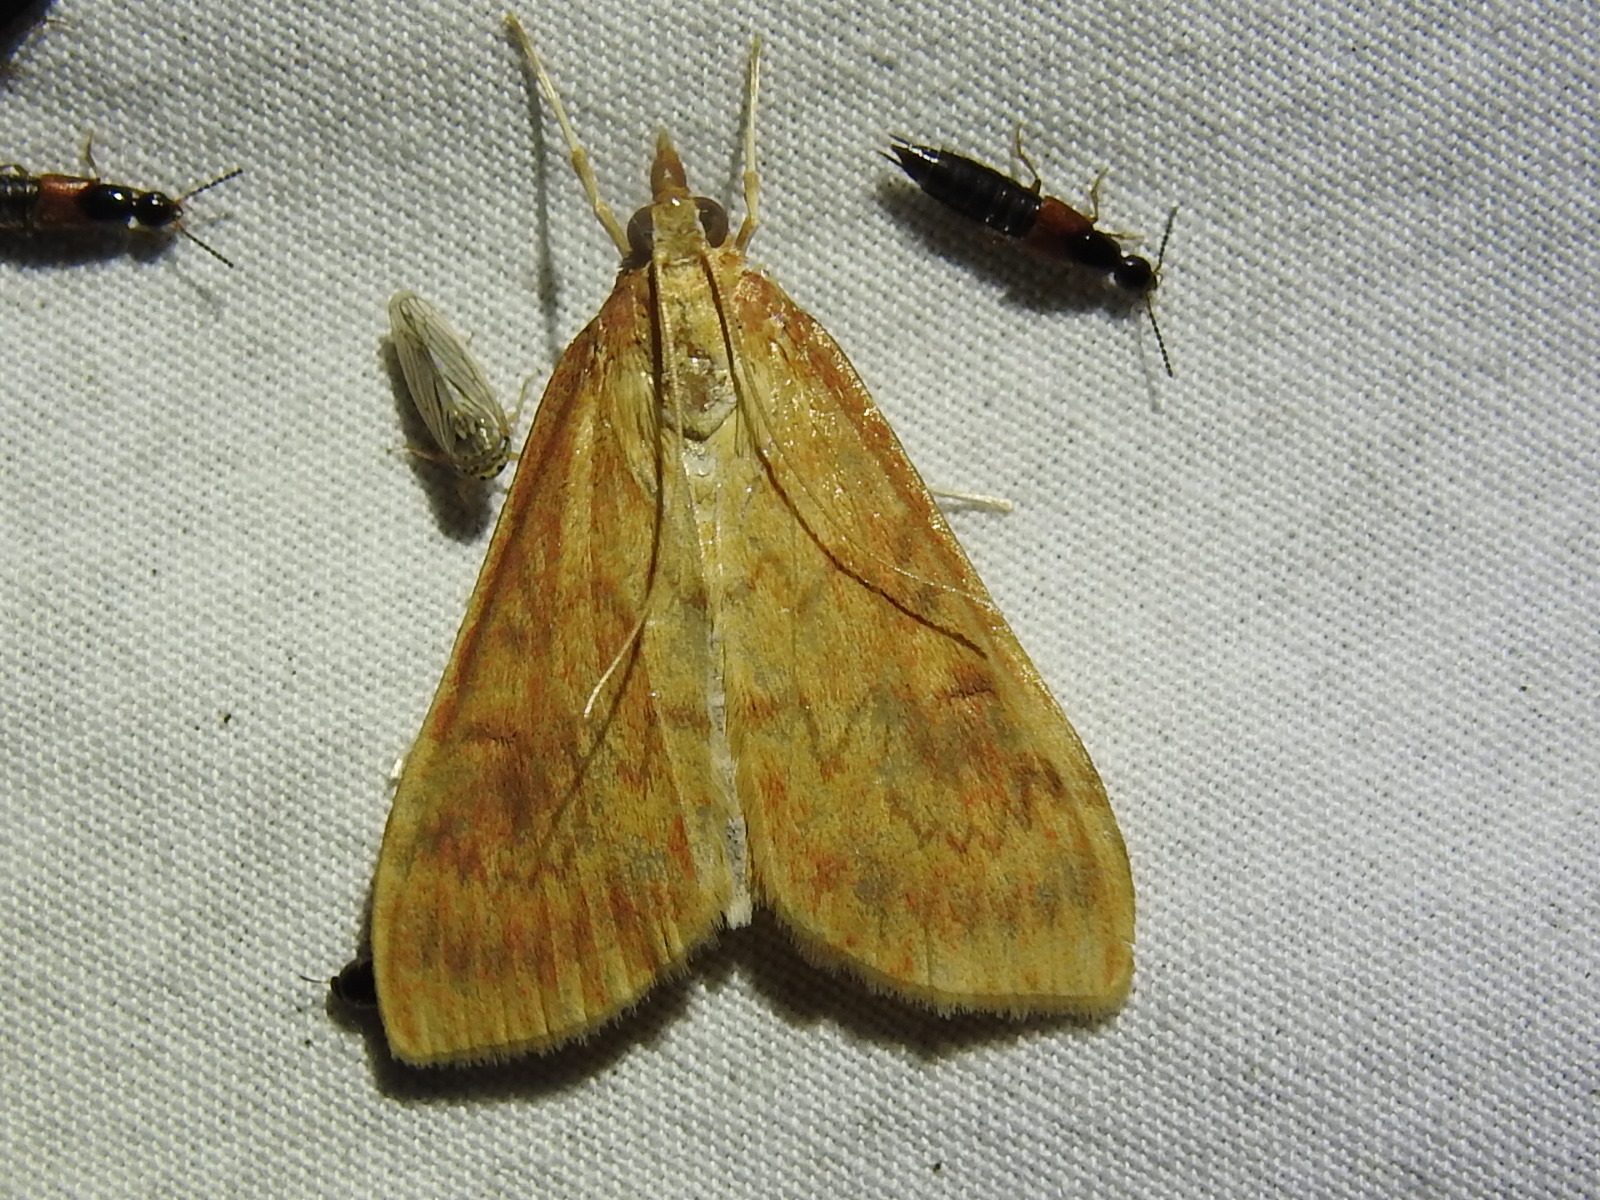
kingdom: Animalia
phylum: Arthropoda
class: Insecta
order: Lepidoptera
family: Crambidae
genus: Ostrinia
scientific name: Ostrinia penitalis
